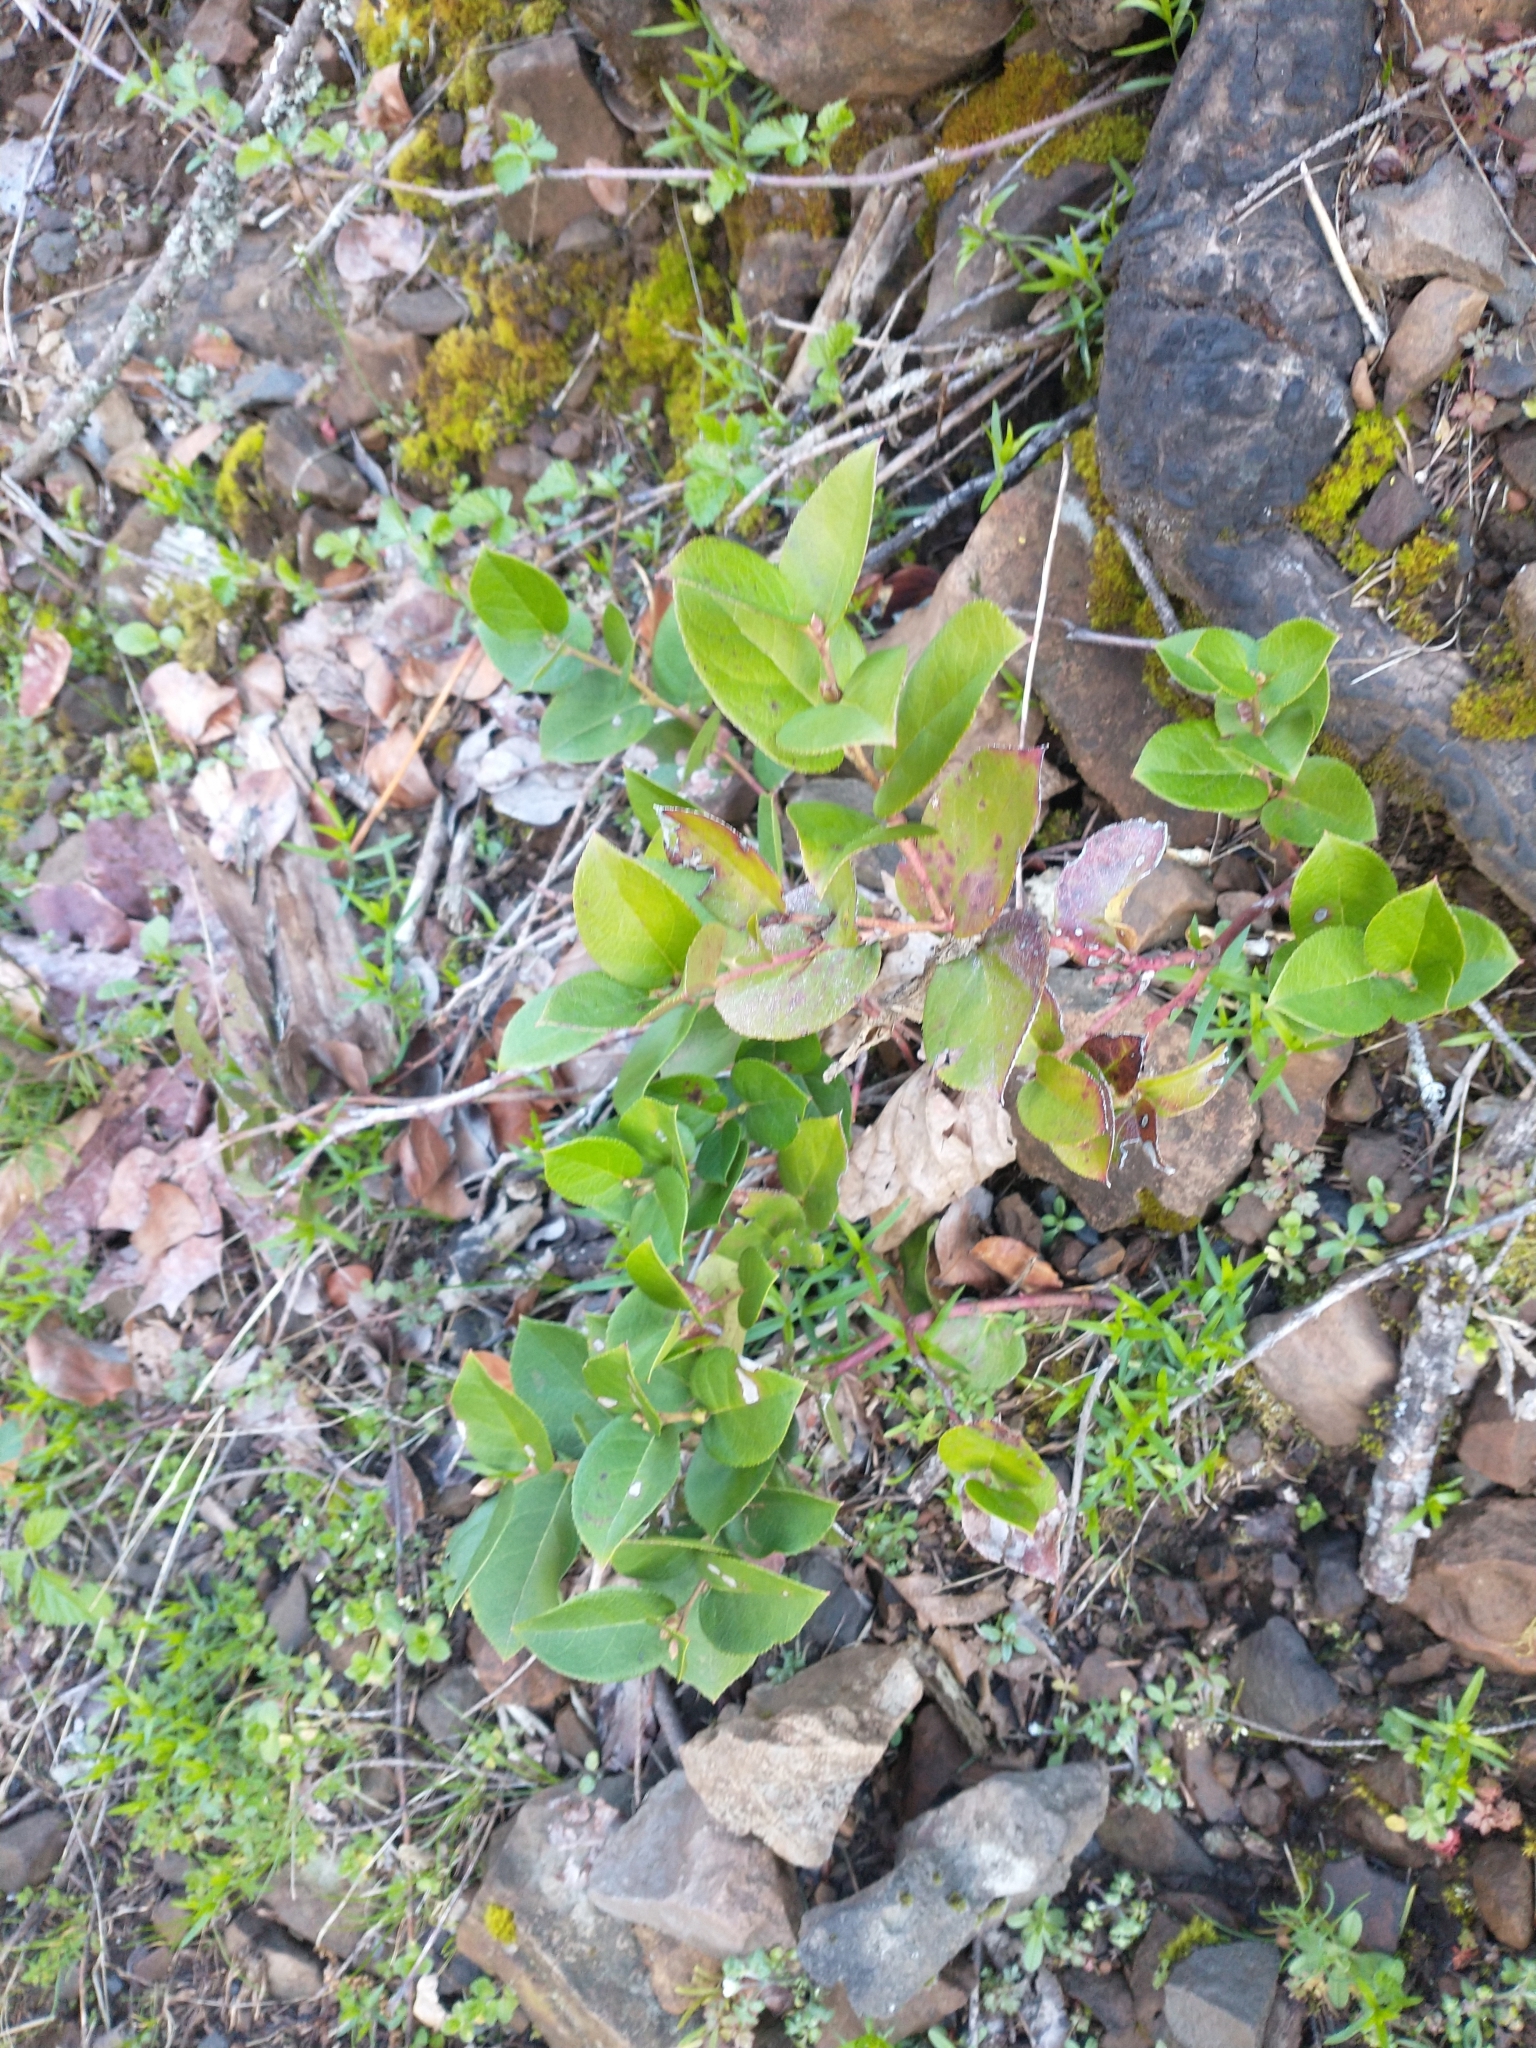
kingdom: Plantae
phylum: Tracheophyta
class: Magnoliopsida
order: Ericales
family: Ericaceae
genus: Gaultheria
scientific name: Gaultheria shallon
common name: Shallon
